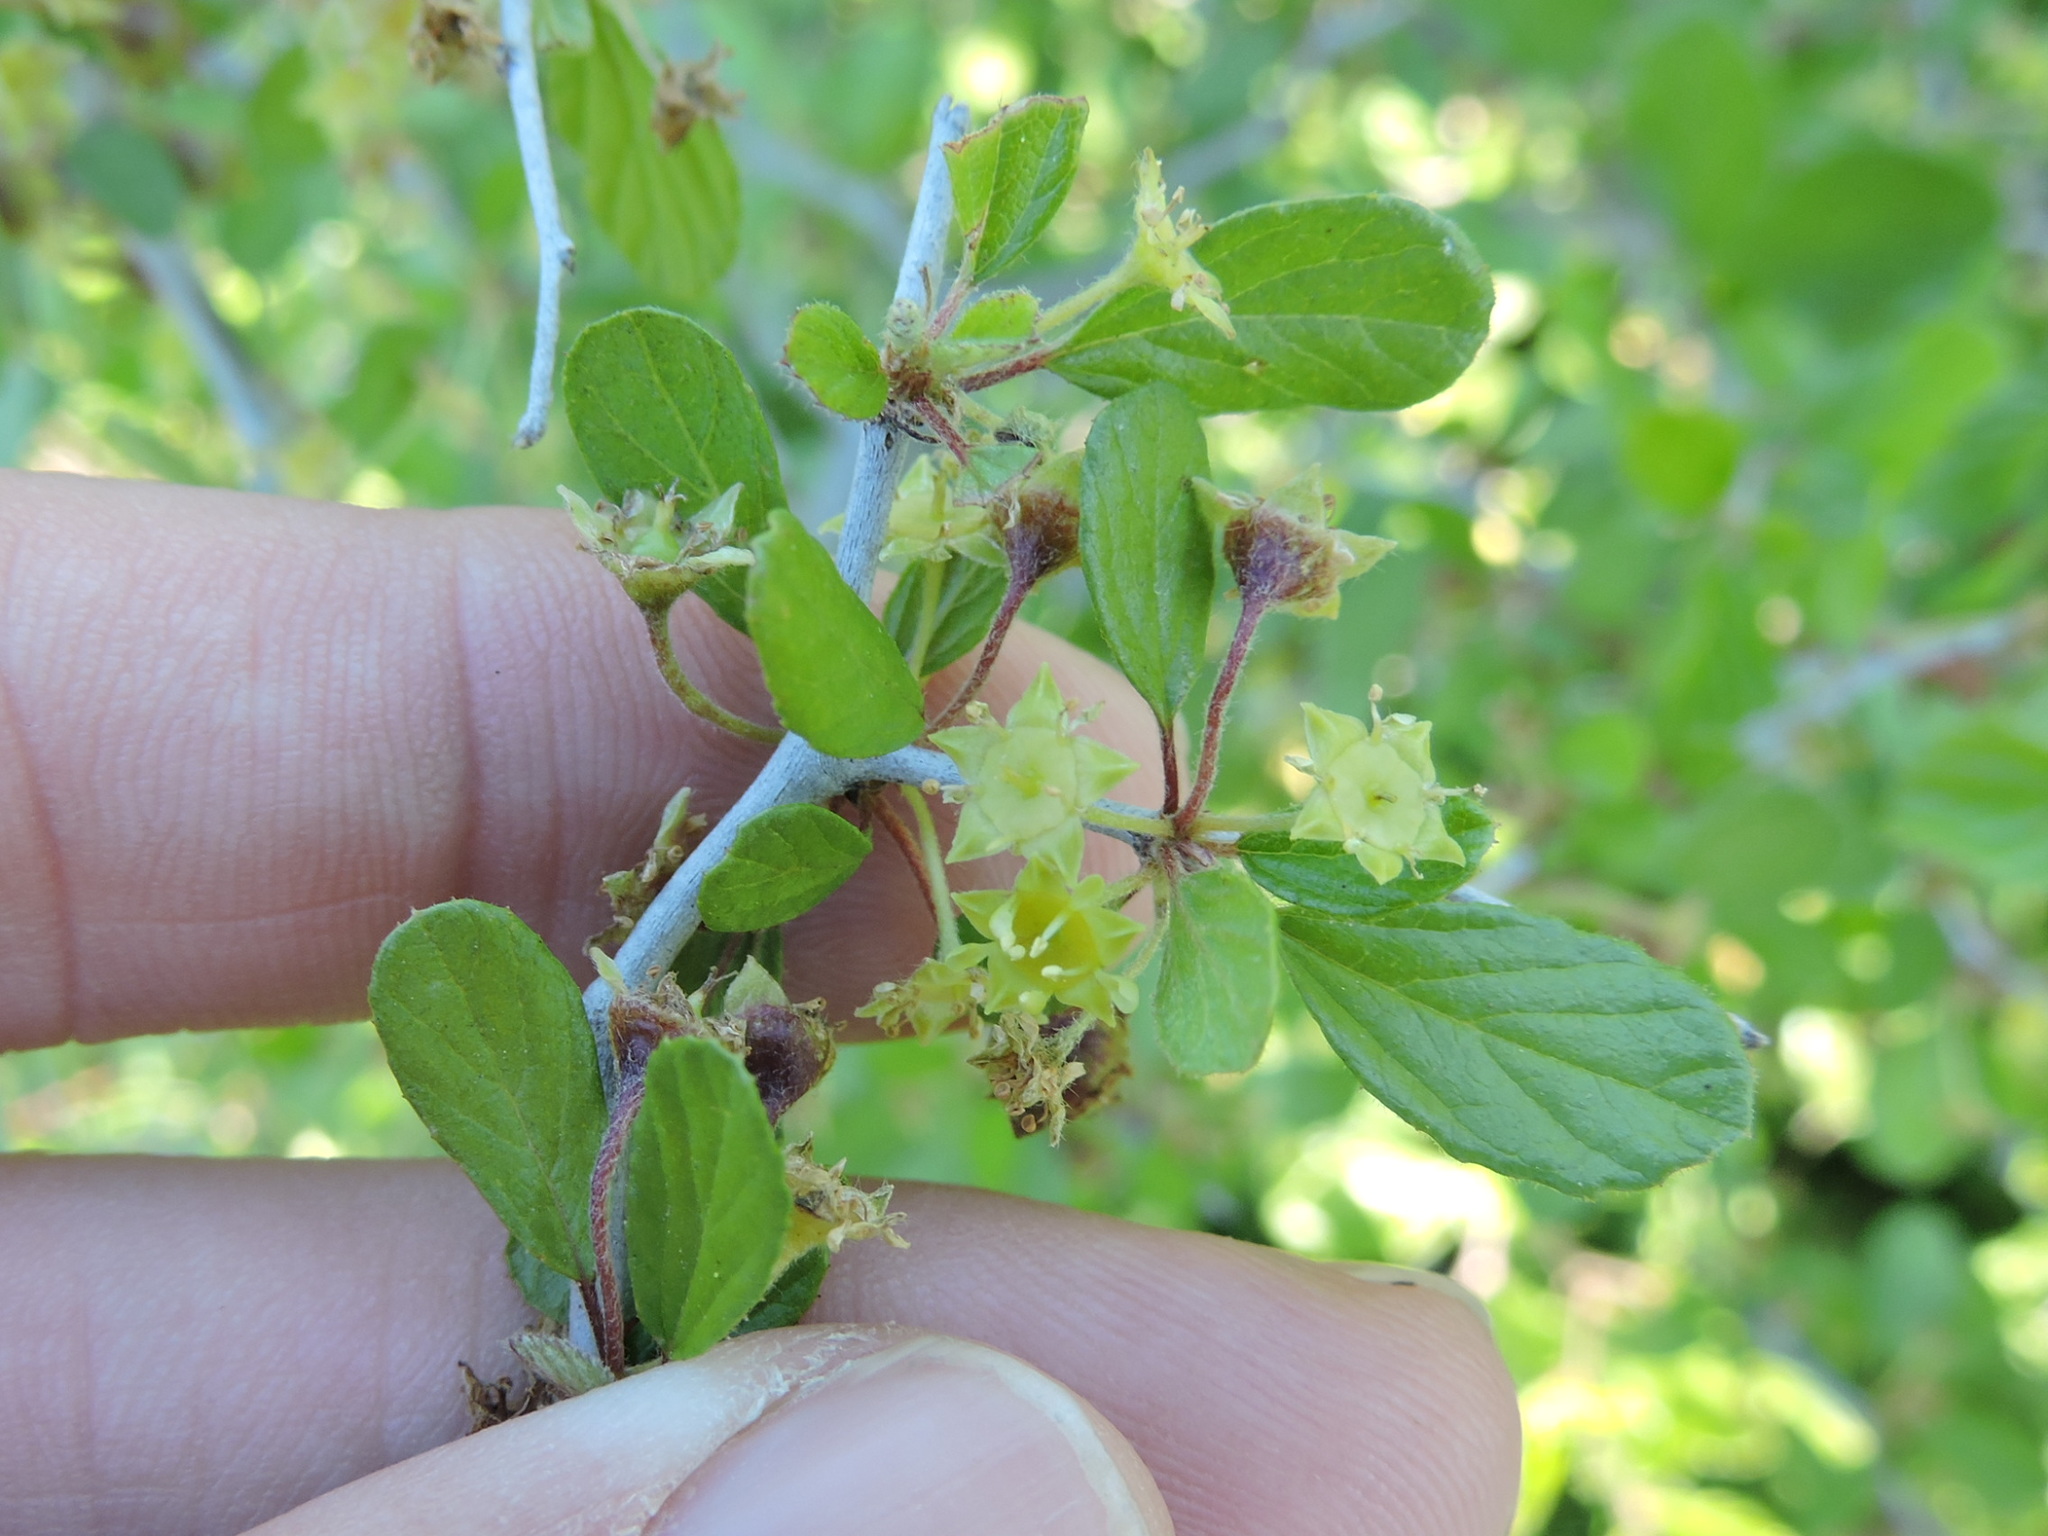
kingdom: Plantae
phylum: Tracheophyta
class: Magnoliopsida
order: Rosales
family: Rhamnaceae
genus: Colubrina
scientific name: Colubrina texensis
